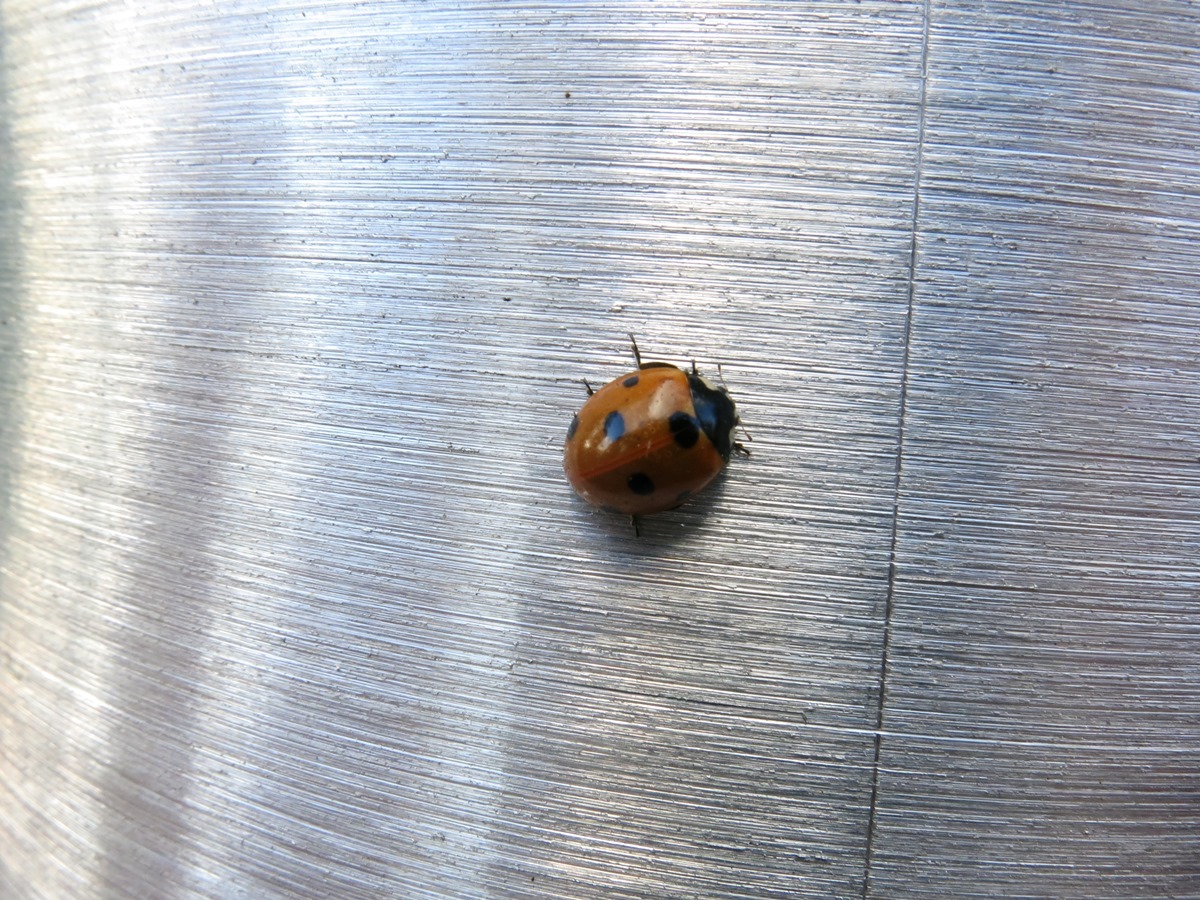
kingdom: Animalia
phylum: Arthropoda
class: Insecta
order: Coleoptera
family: Coccinellidae
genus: Coccinella
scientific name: Coccinella septempunctata
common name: Sevenspotted lady beetle
